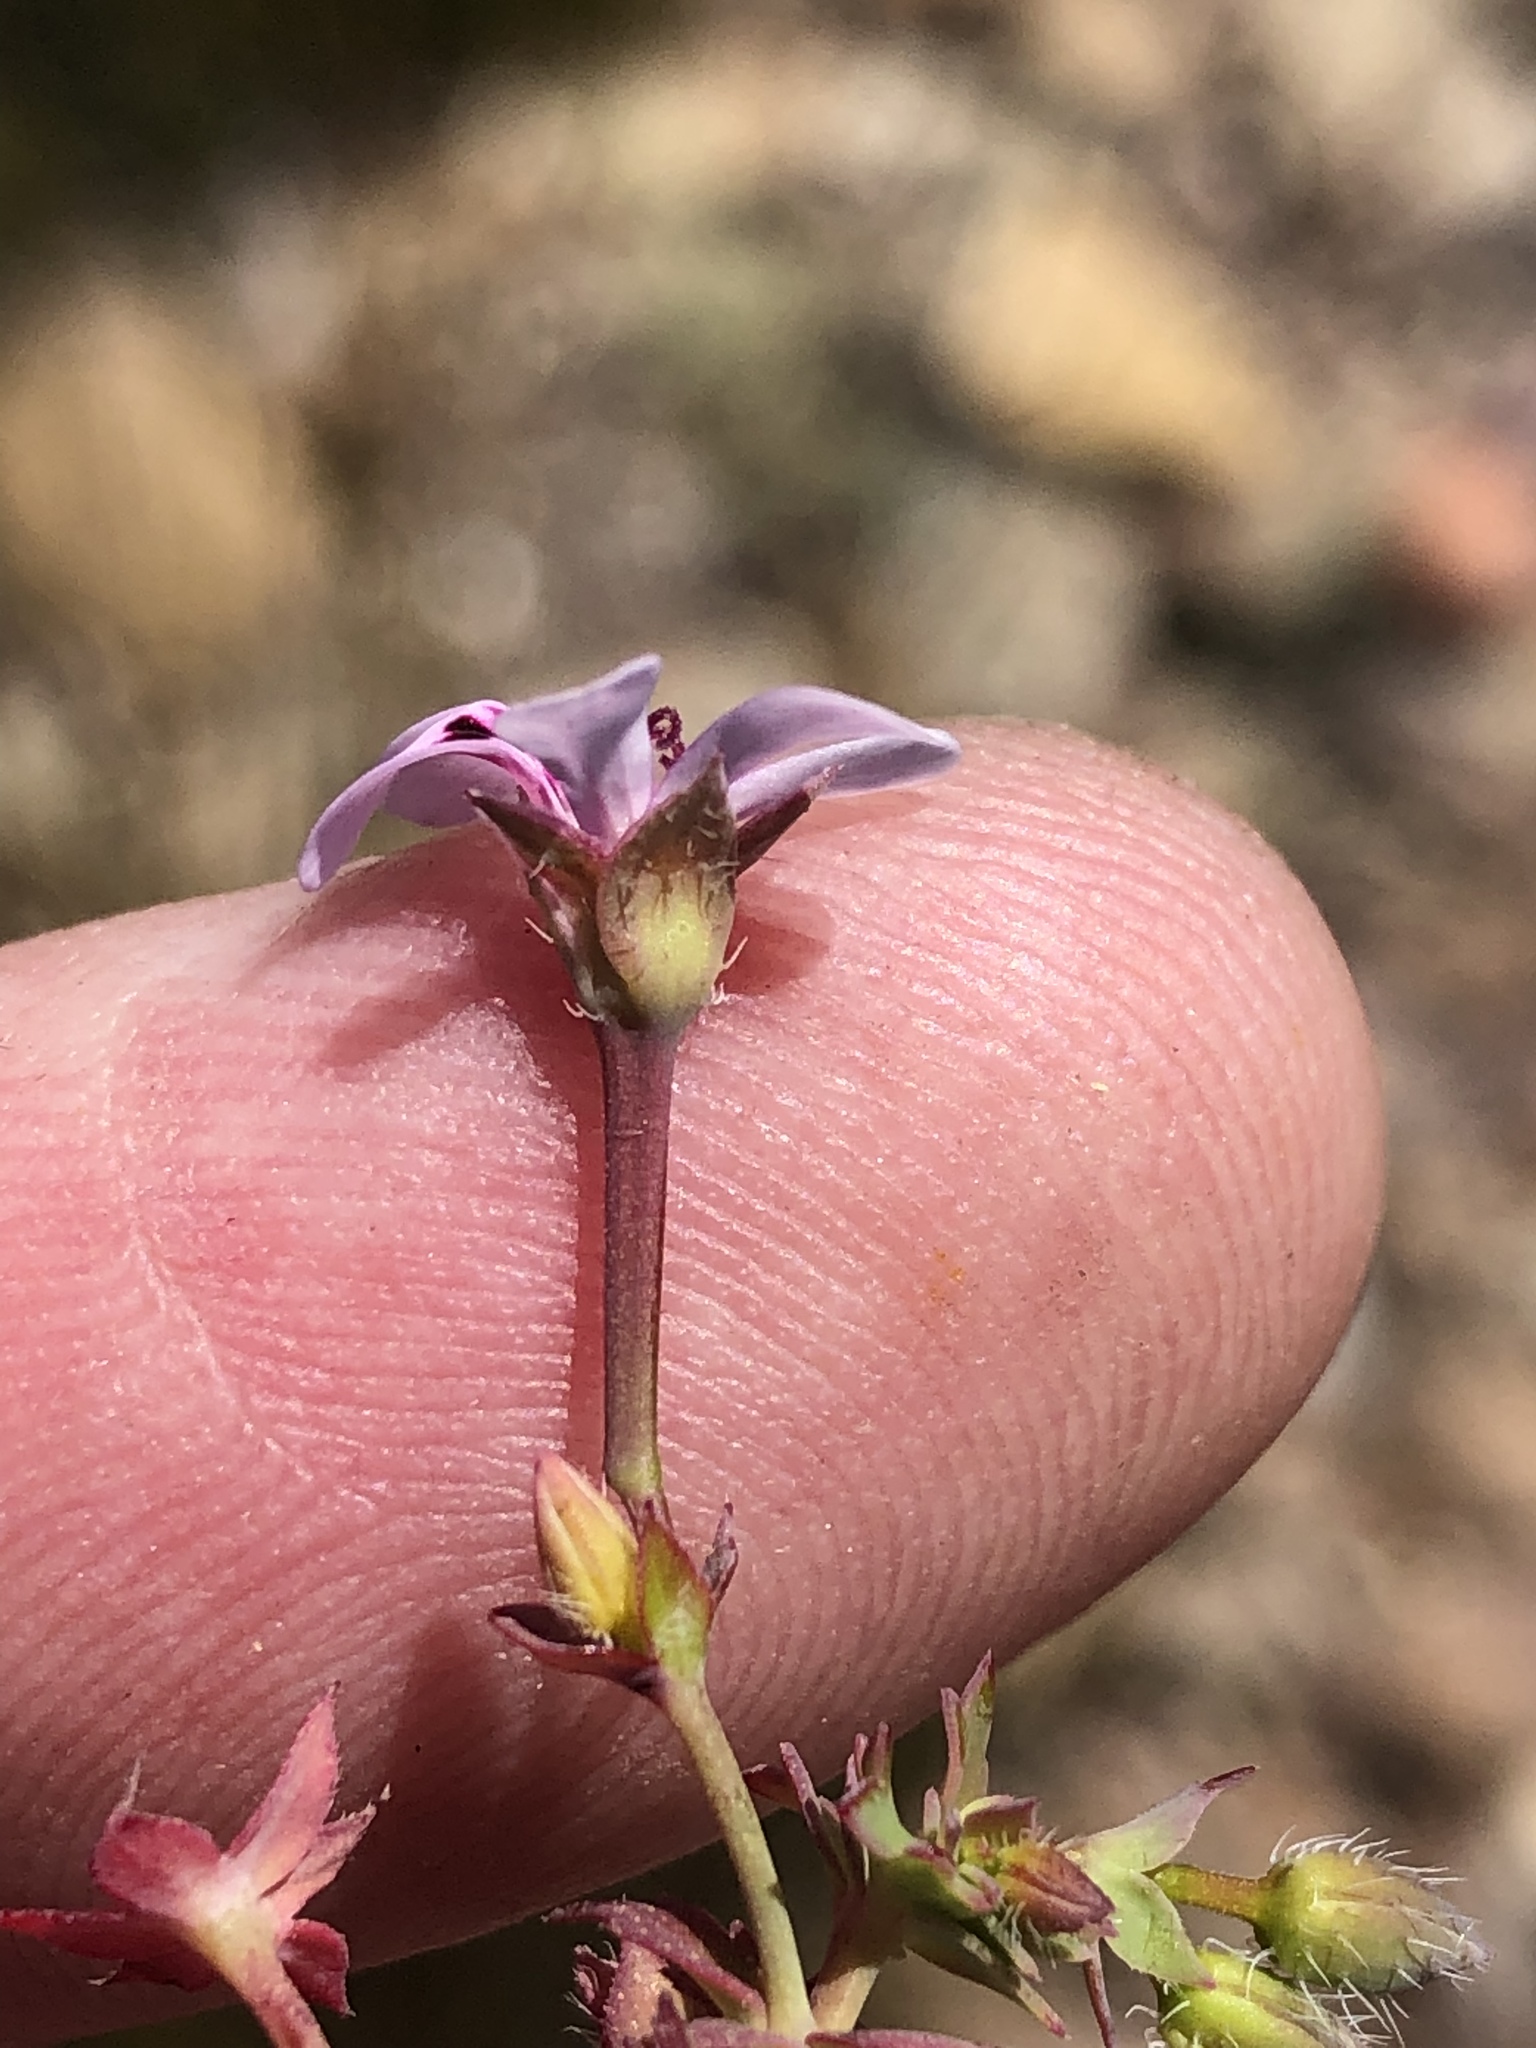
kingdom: Plantae
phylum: Tracheophyta
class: Magnoliopsida
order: Geraniales
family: Geraniaceae
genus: Pelargonium
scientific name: Pelargonium patulum
